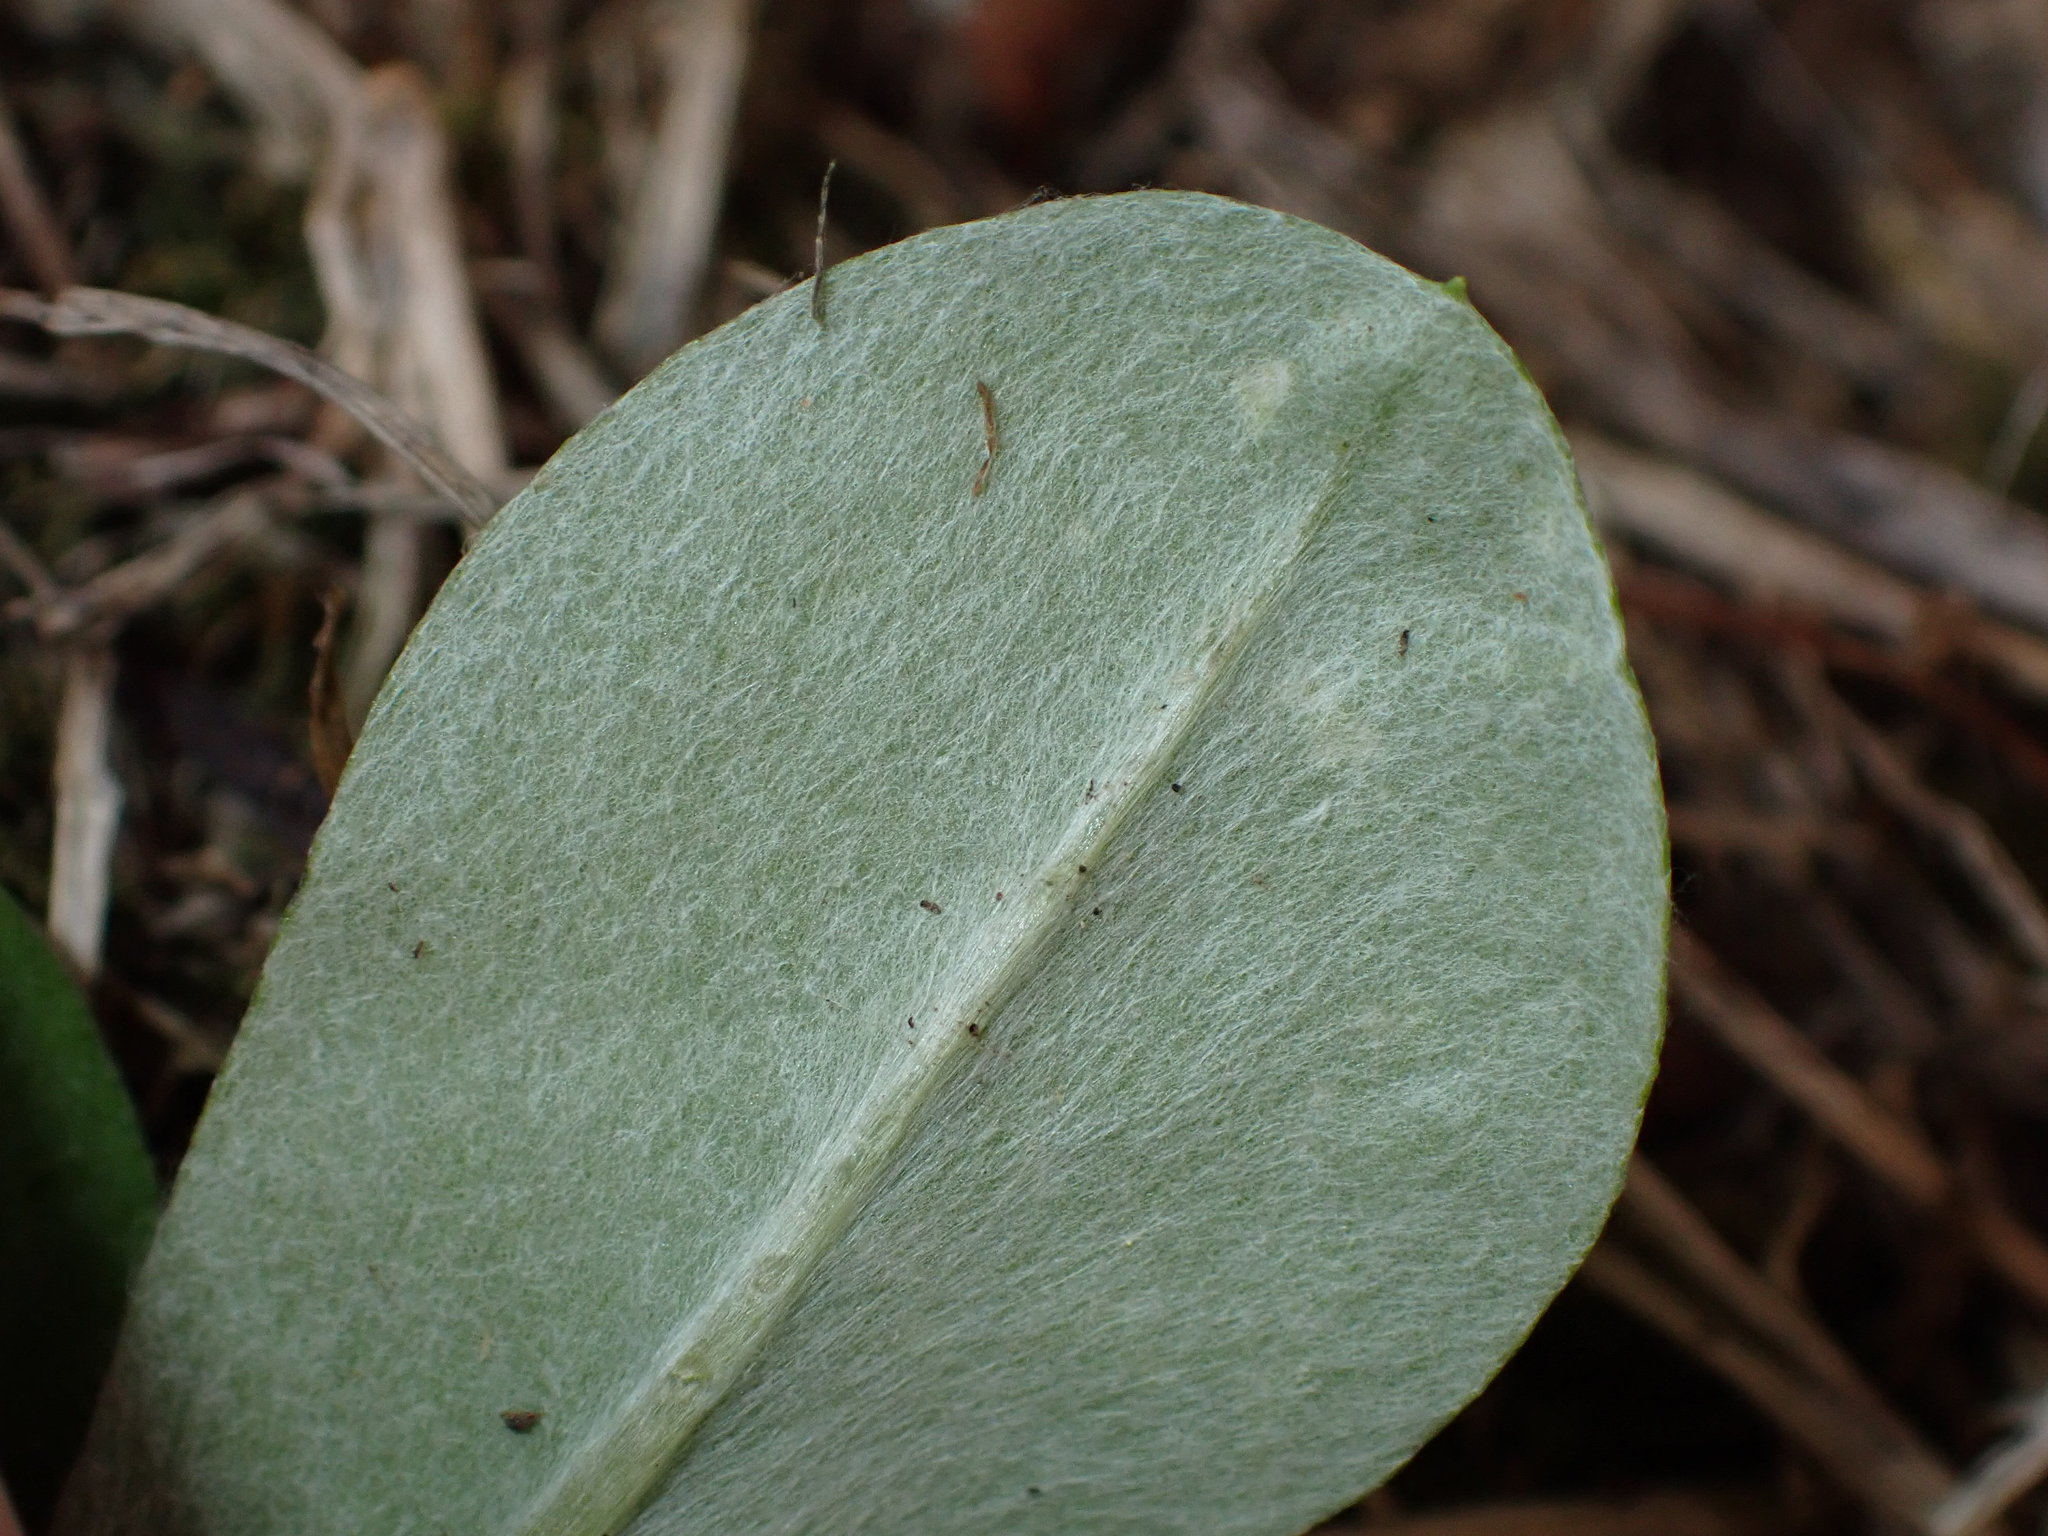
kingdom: Plantae
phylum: Tracheophyta
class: Magnoliopsida
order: Asterales
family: Asteraceae
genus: Gamochaeta
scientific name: Gamochaeta americana
